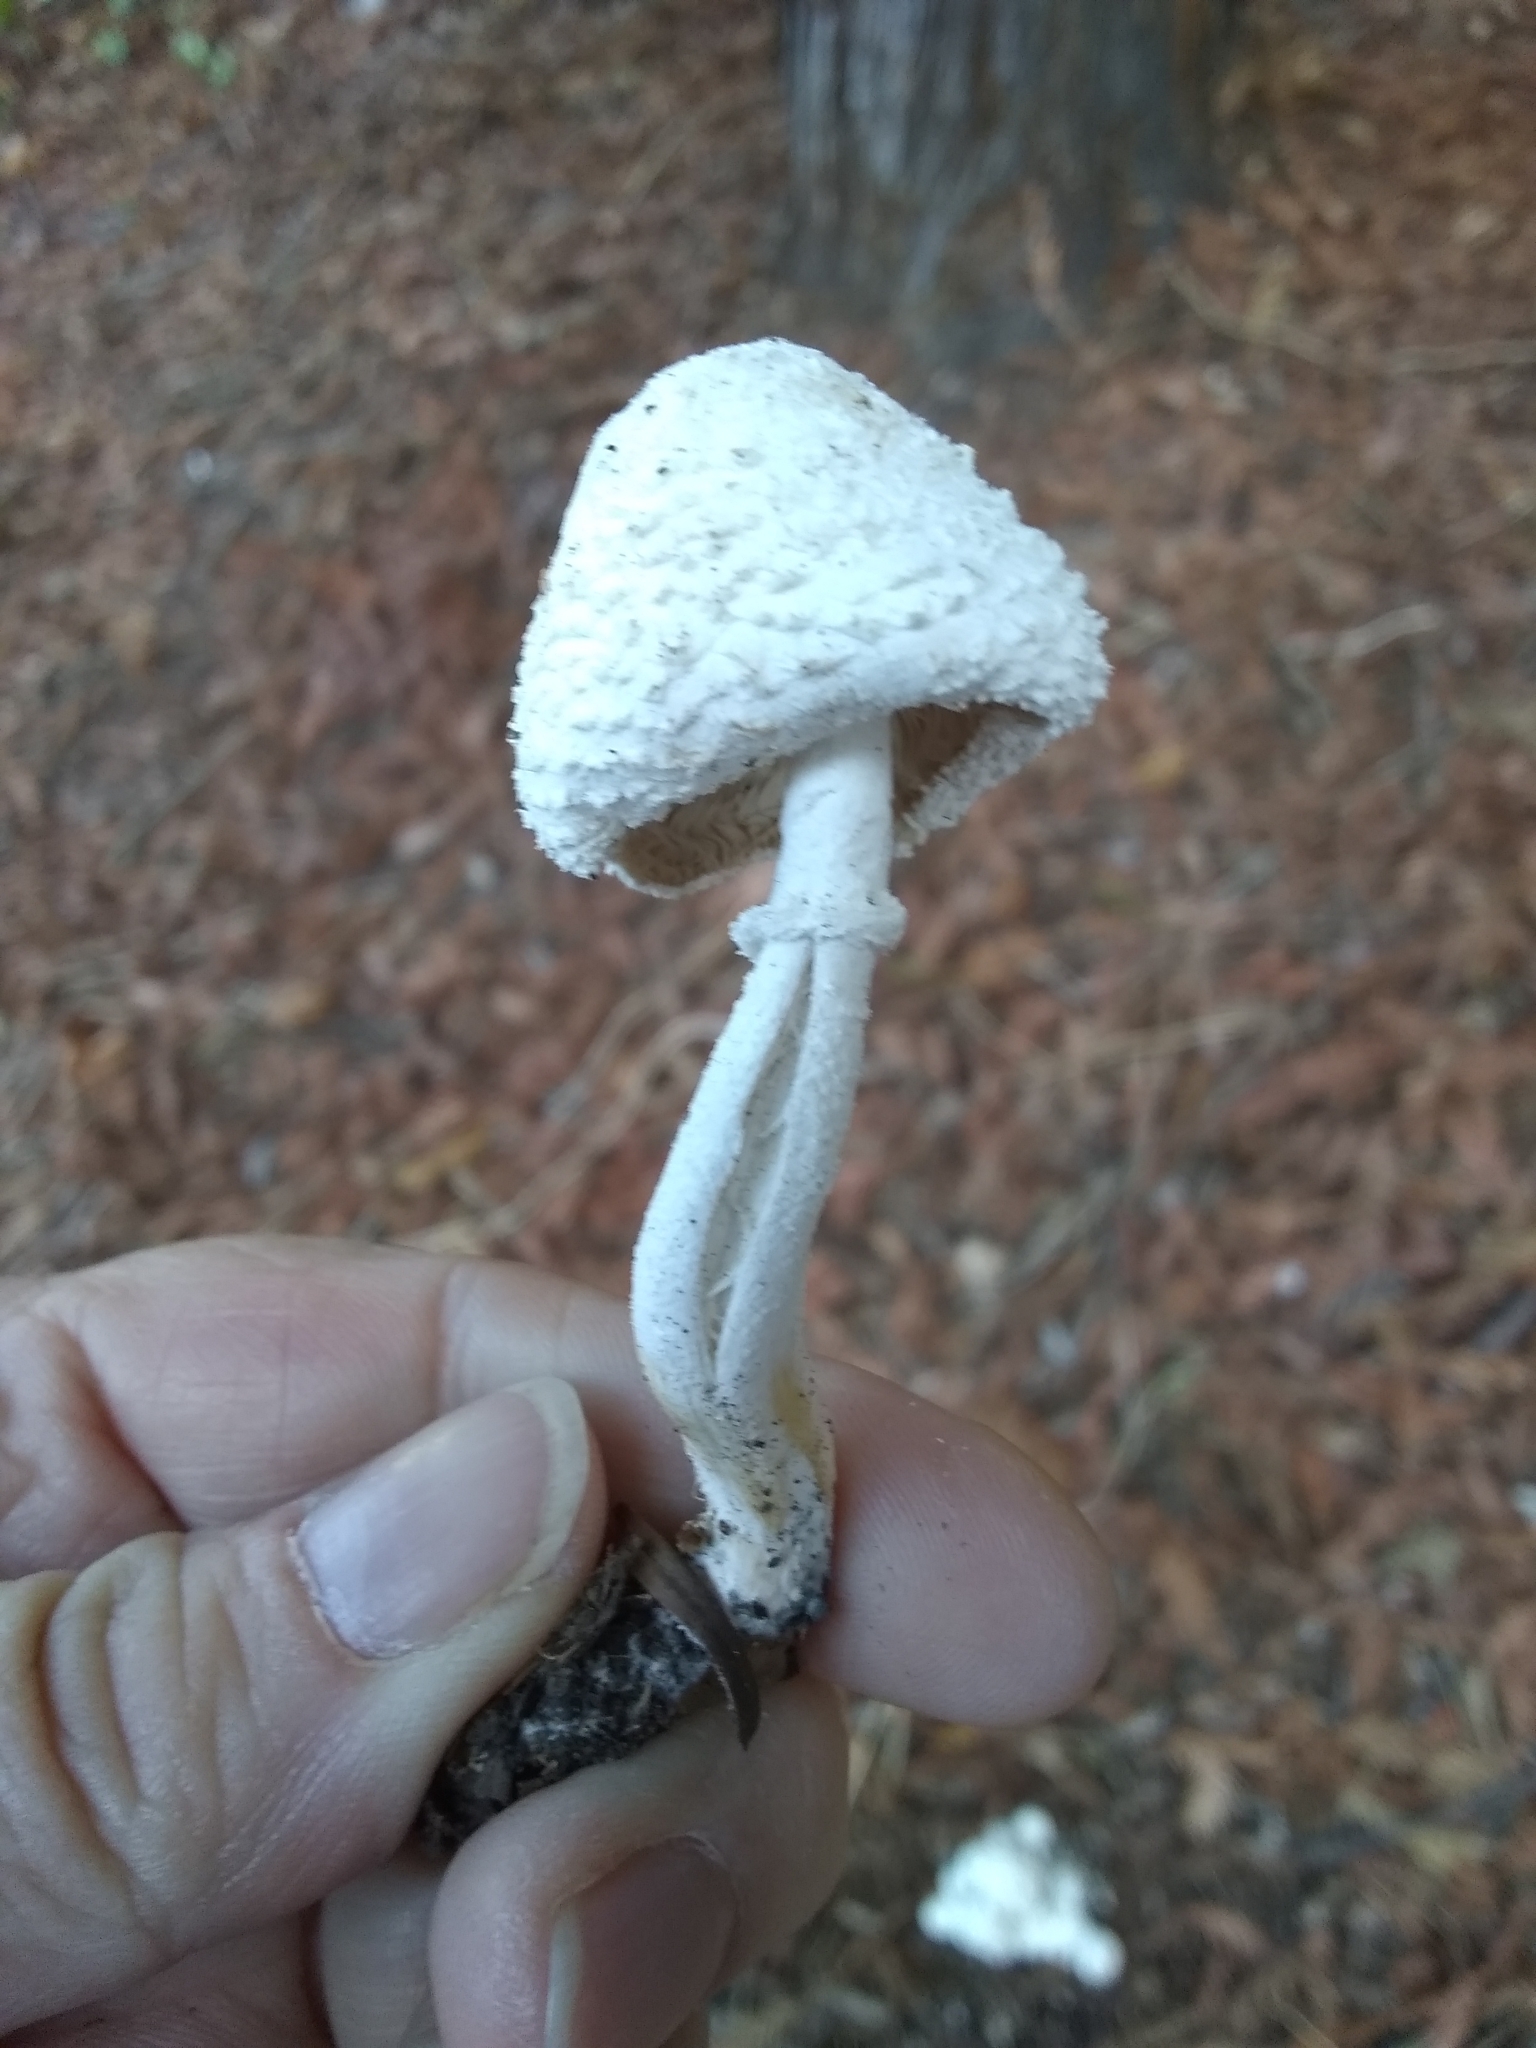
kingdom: Fungi
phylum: Basidiomycota
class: Agaricomycetes
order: Agaricales
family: Agaricaceae
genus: Leucocoprinus
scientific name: Leucocoprinus cretaceus
